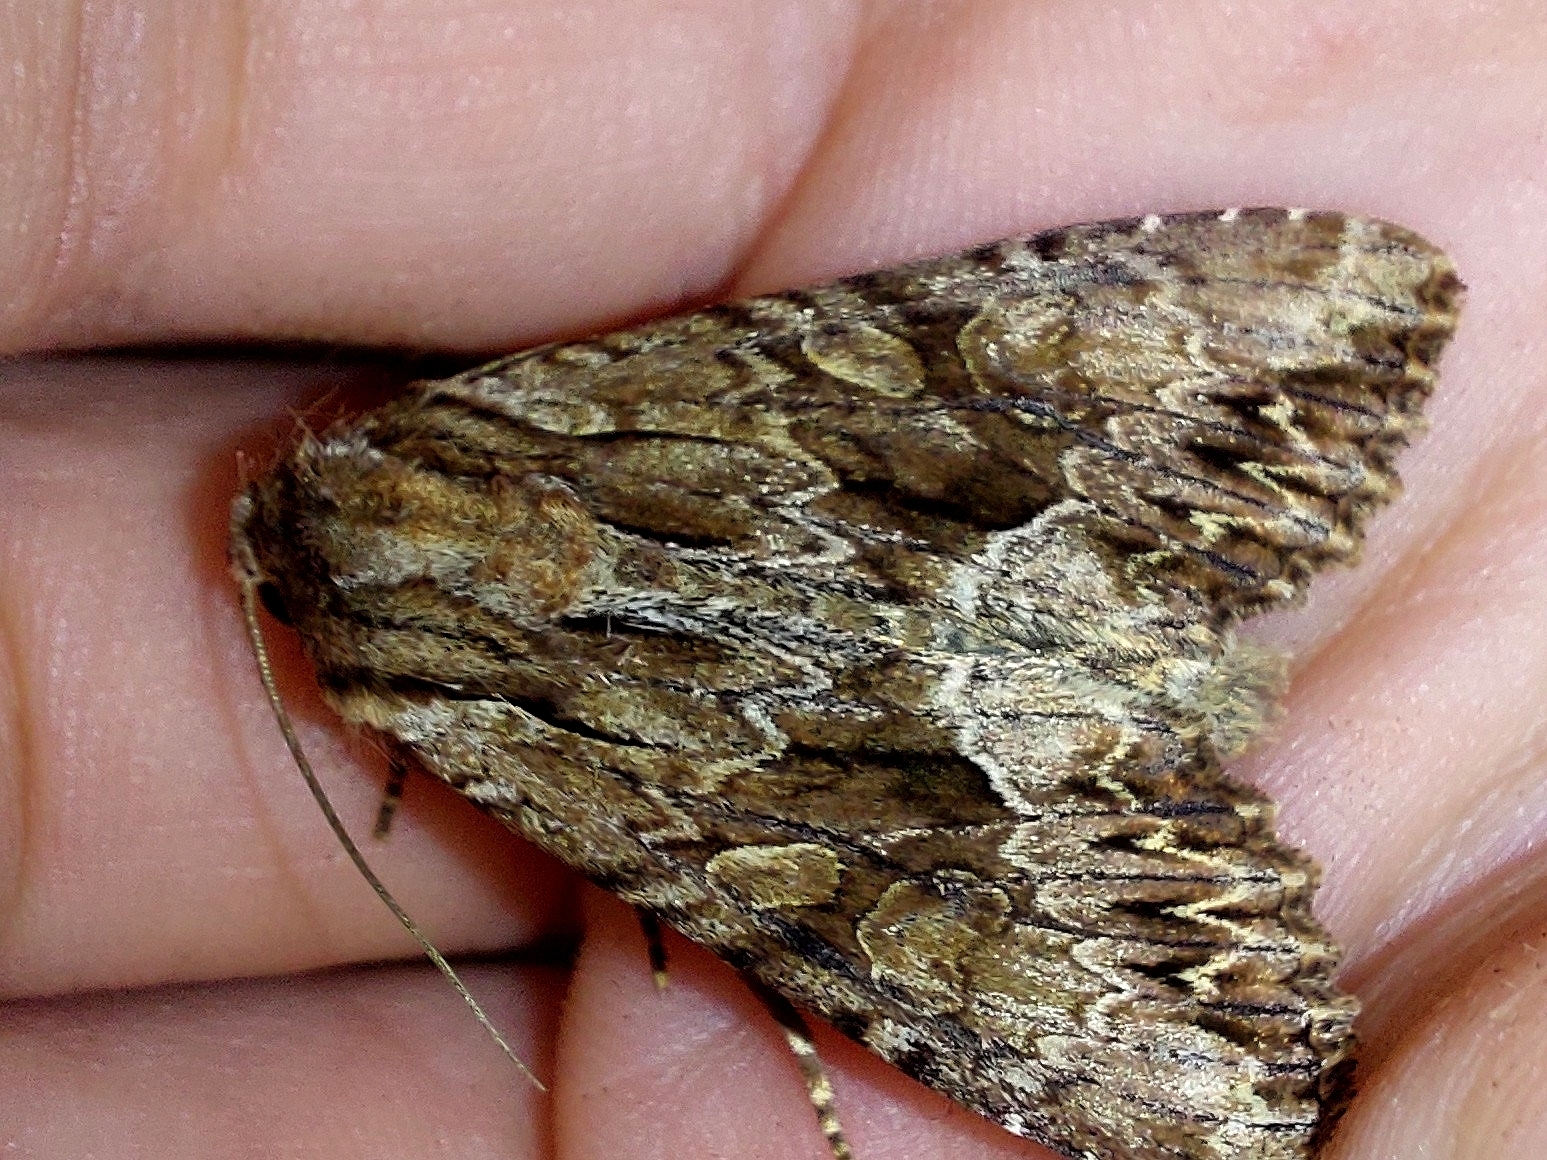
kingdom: Animalia
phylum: Arthropoda
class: Insecta
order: Lepidoptera
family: Noctuidae
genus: Apamea
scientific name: Apamea monoglypha
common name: Dark arches
